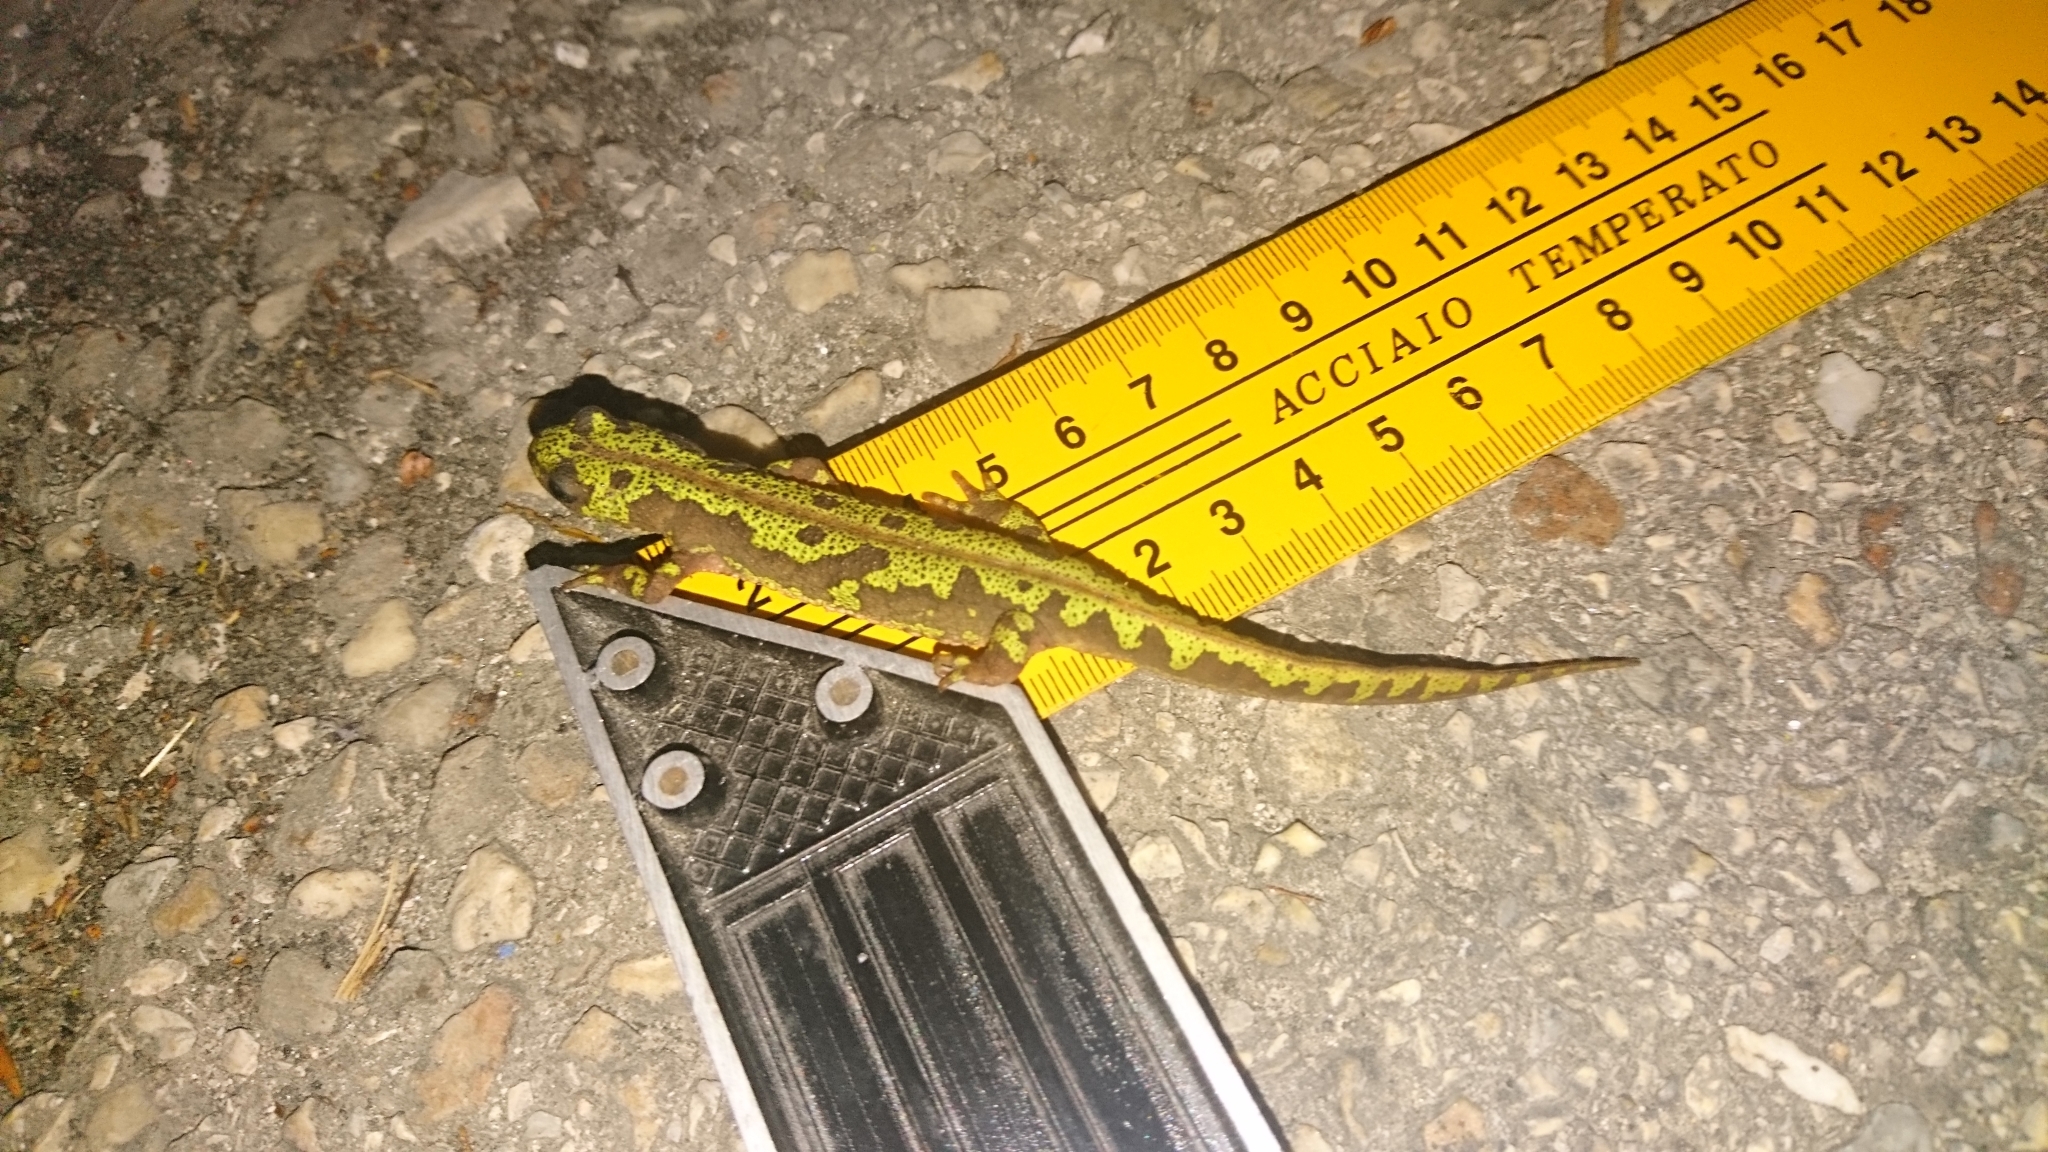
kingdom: Animalia
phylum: Chordata
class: Amphibia
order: Caudata
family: Salamandridae
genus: Triturus
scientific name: Triturus marmoratus
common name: Marbled newt
